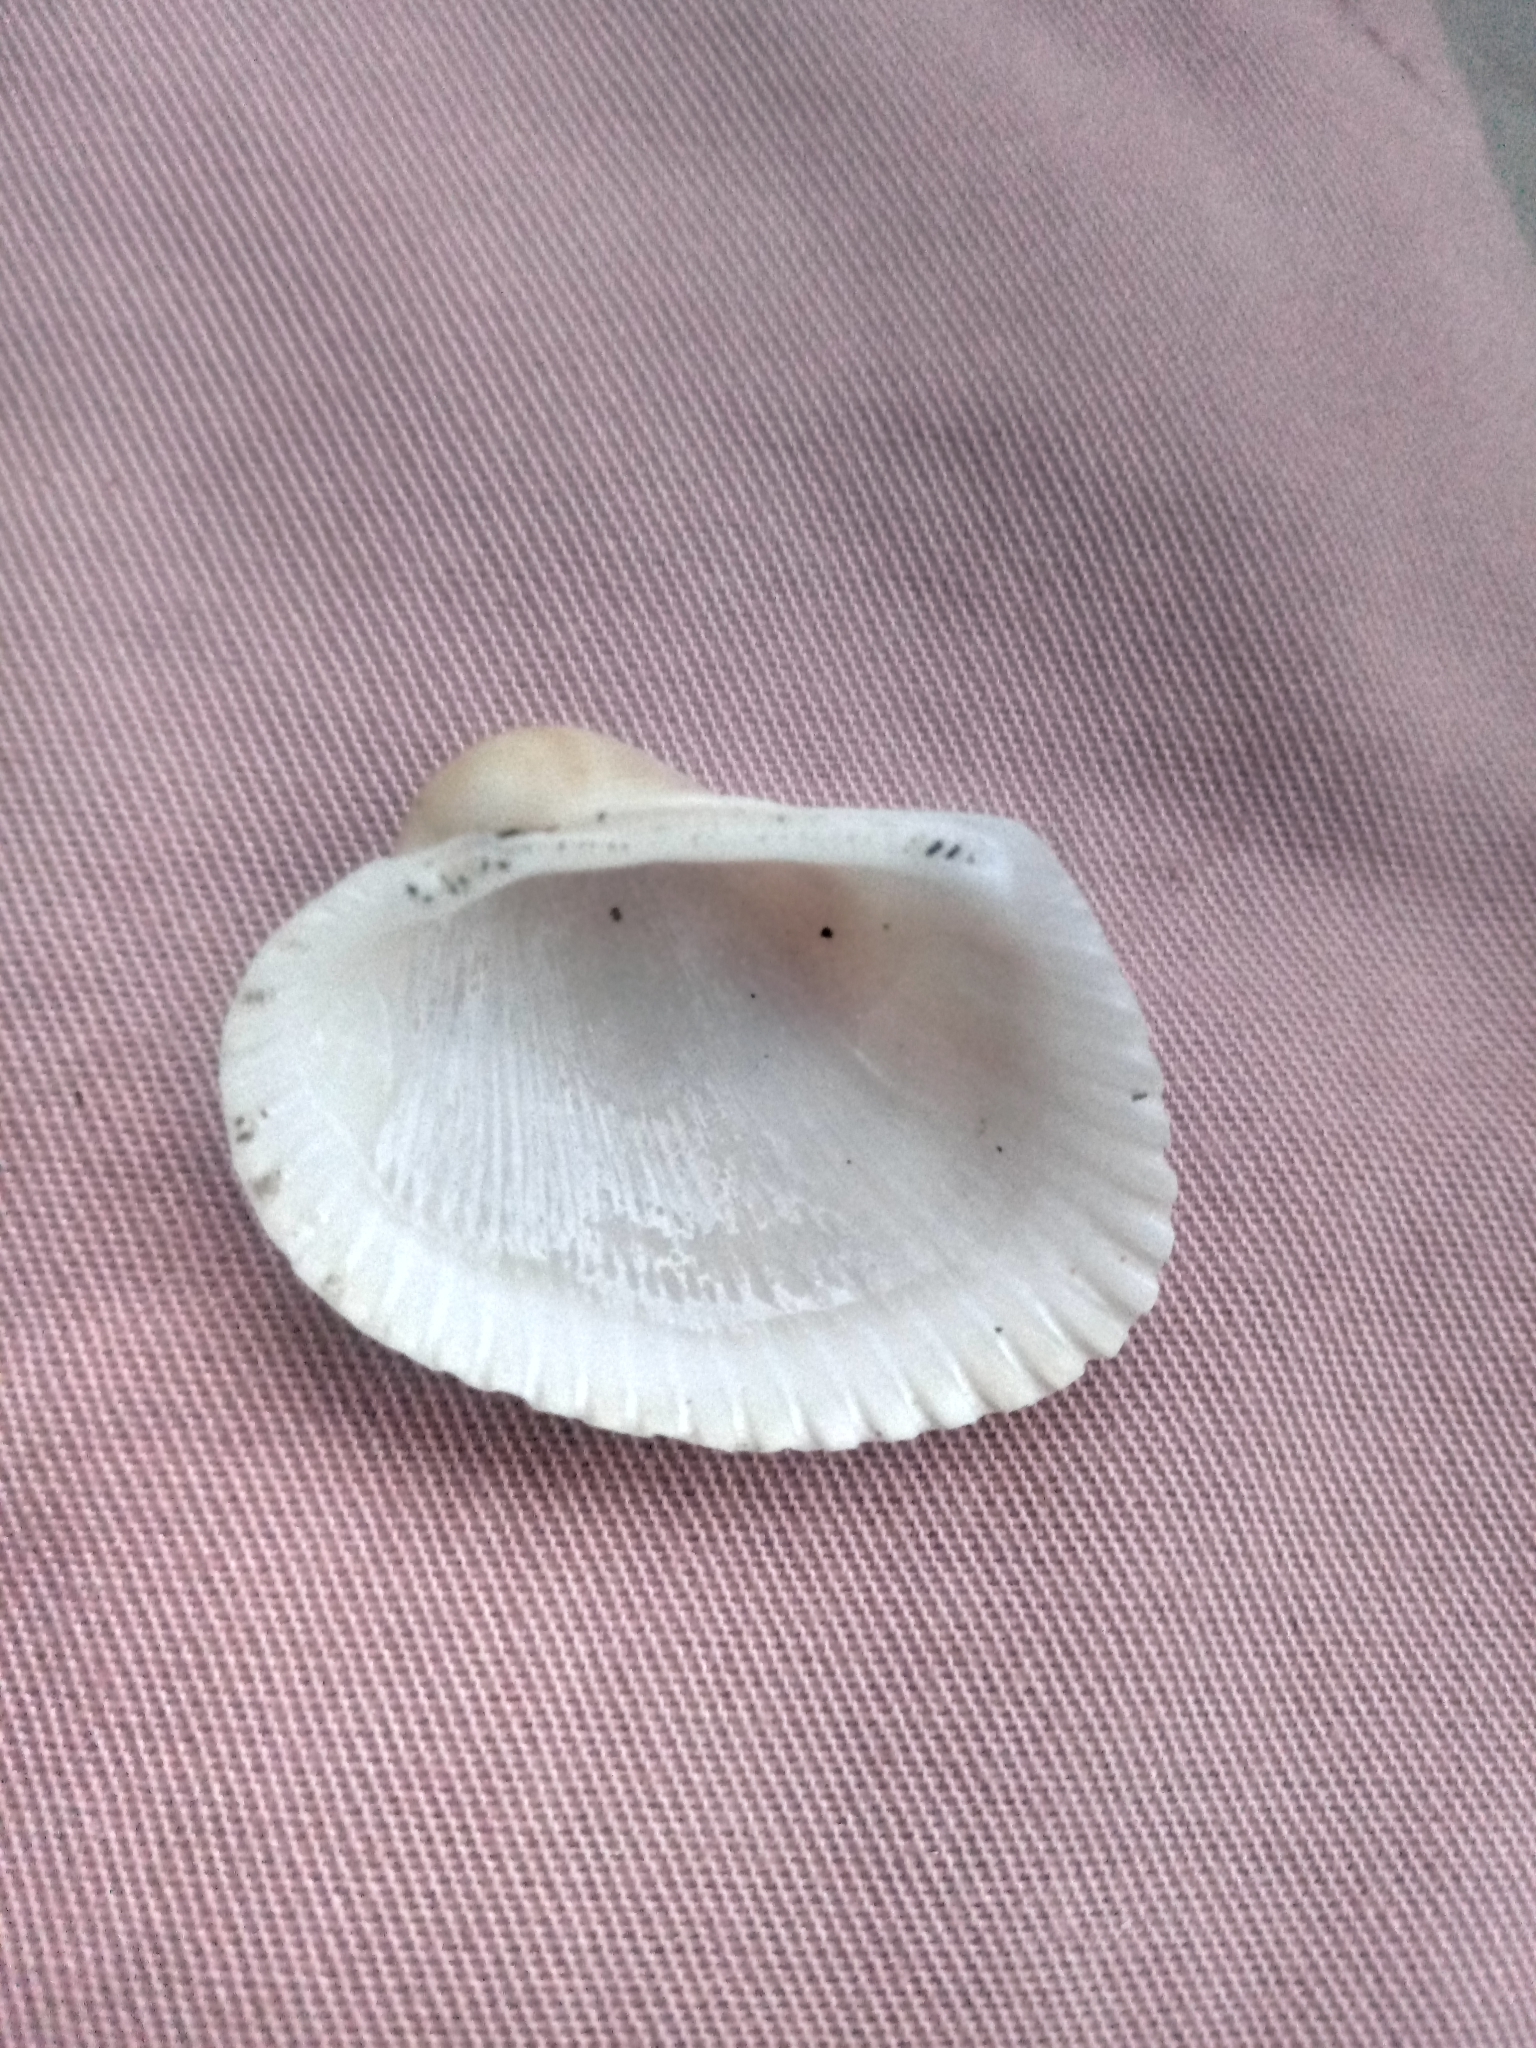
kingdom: Animalia
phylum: Mollusca
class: Bivalvia
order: Arcida
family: Arcidae
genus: Lunarca
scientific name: Lunarca ovalis
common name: Blood ark
